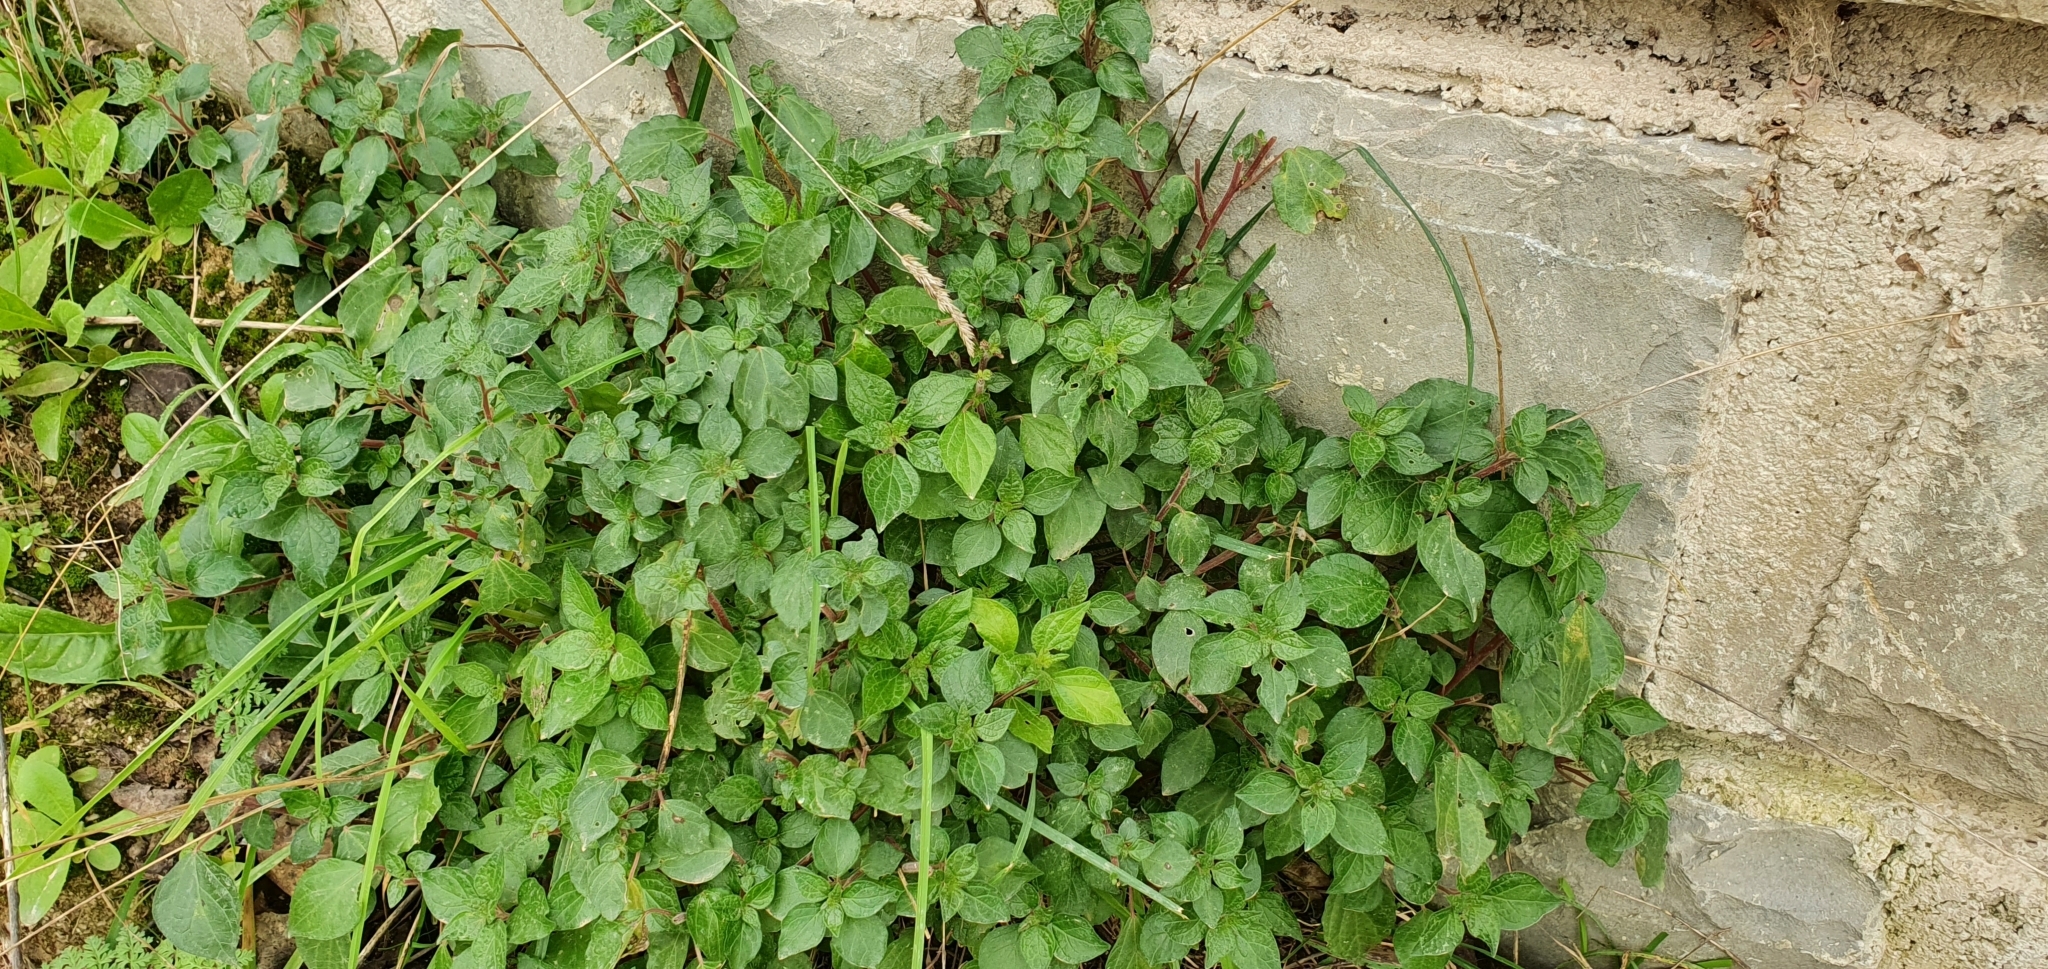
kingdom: Plantae
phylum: Tracheophyta
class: Magnoliopsida
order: Rosales
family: Urticaceae
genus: Parietaria
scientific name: Parietaria judaica
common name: Pellitory-of-the-wall
